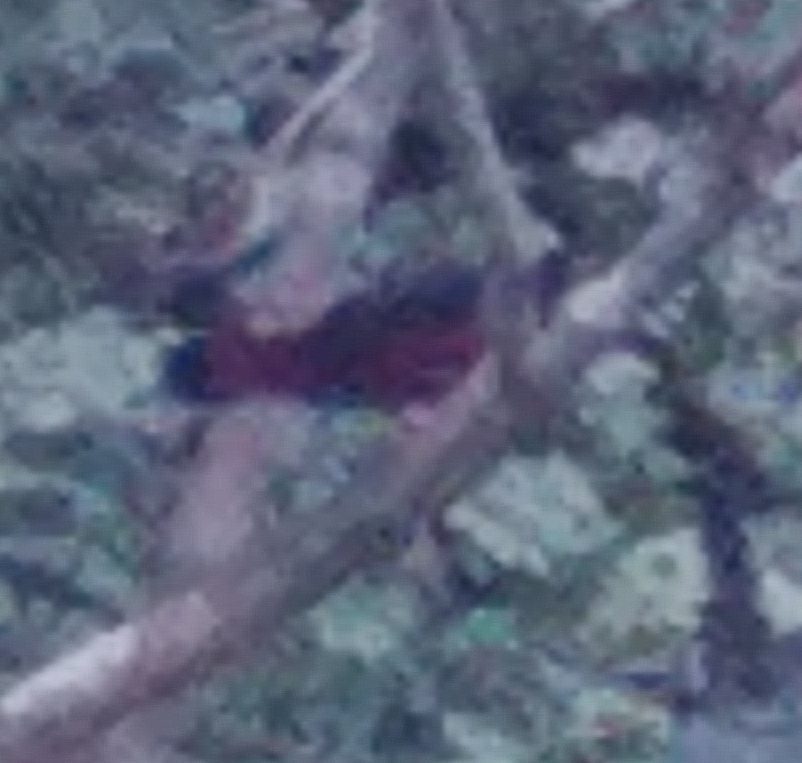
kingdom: Animalia
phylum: Chordata
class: Aves
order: Passeriformes
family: Muscicapidae
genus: Chaimarrornis
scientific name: Chaimarrornis leucocephalus
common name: White-capped redstart
